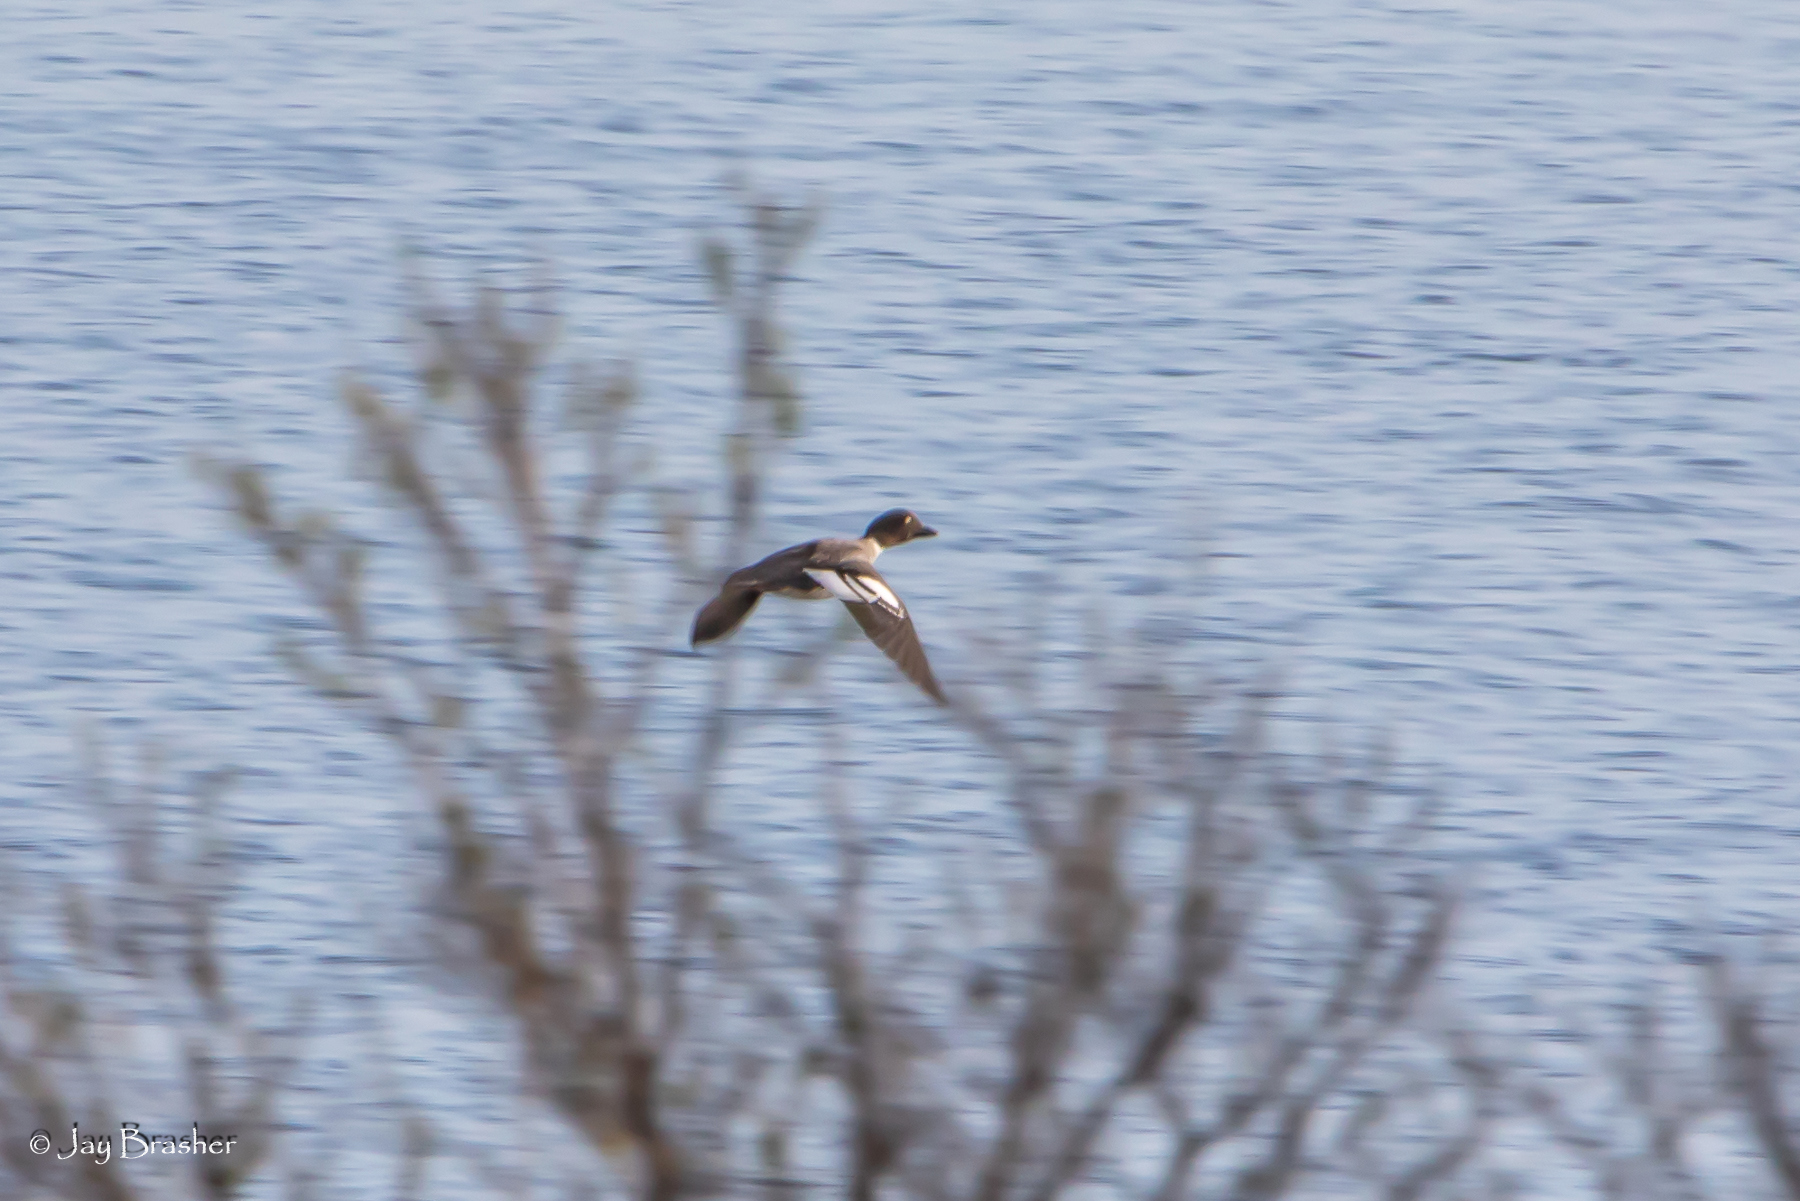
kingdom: Animalia
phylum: Chordata
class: Aves
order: Anseriformes
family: Anatidae
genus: Bucephala
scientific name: Bucephala clangula
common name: Common goldeneye
